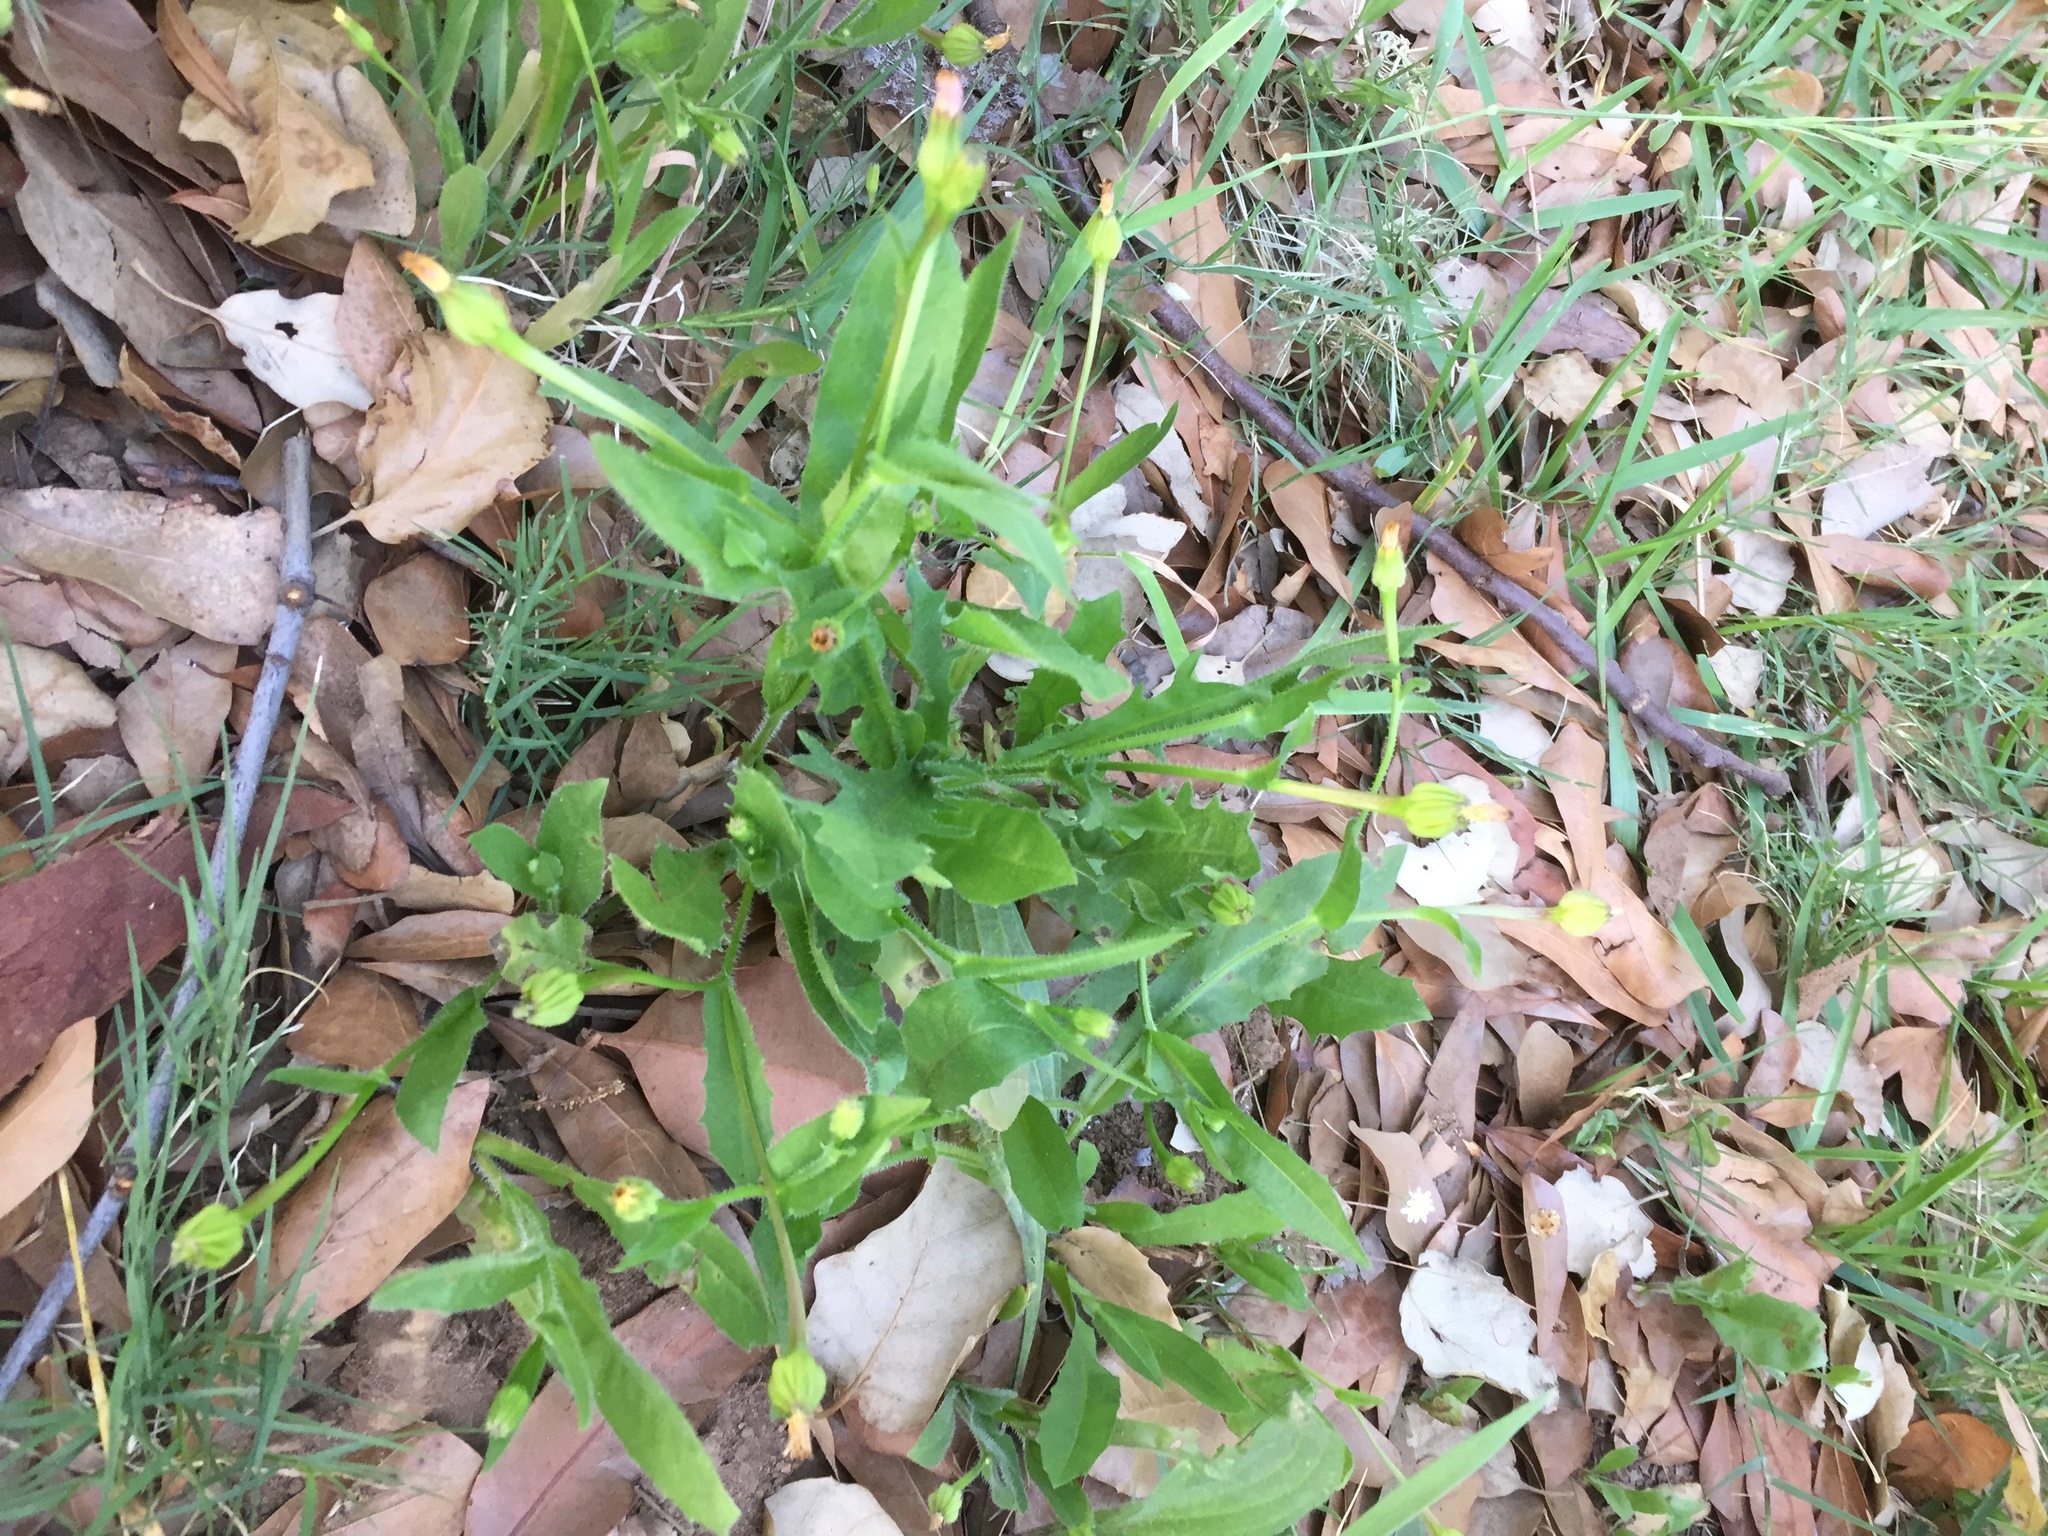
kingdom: Plantae
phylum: Tracheophyta
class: Magnoliopsida
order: Asterales
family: Asteraceae
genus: Hedypnois
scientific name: Hedypnois rhagadioloides
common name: Cretan weed
